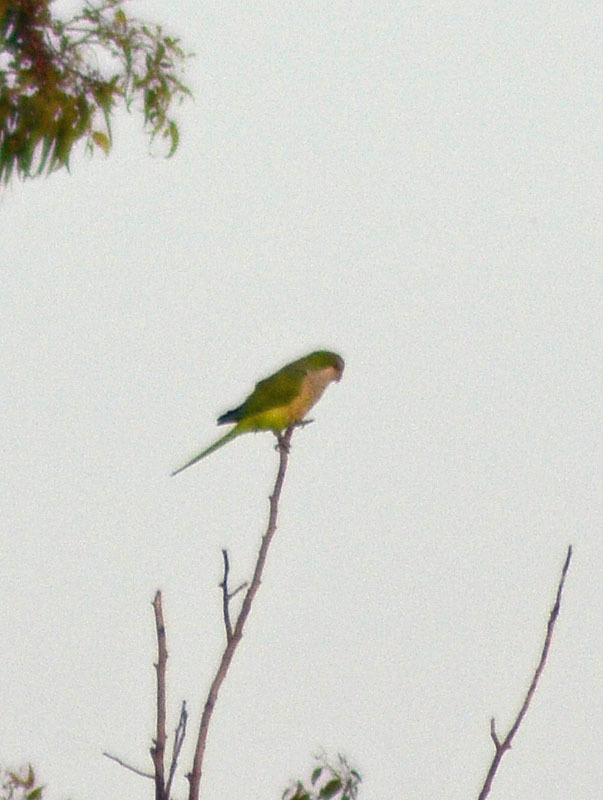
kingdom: Animalia
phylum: Chordata
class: Aves
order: Psittaciformes
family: Psittacidae
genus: Myiopsitta
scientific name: Myiopsitta monachus
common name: Monk parakeet
